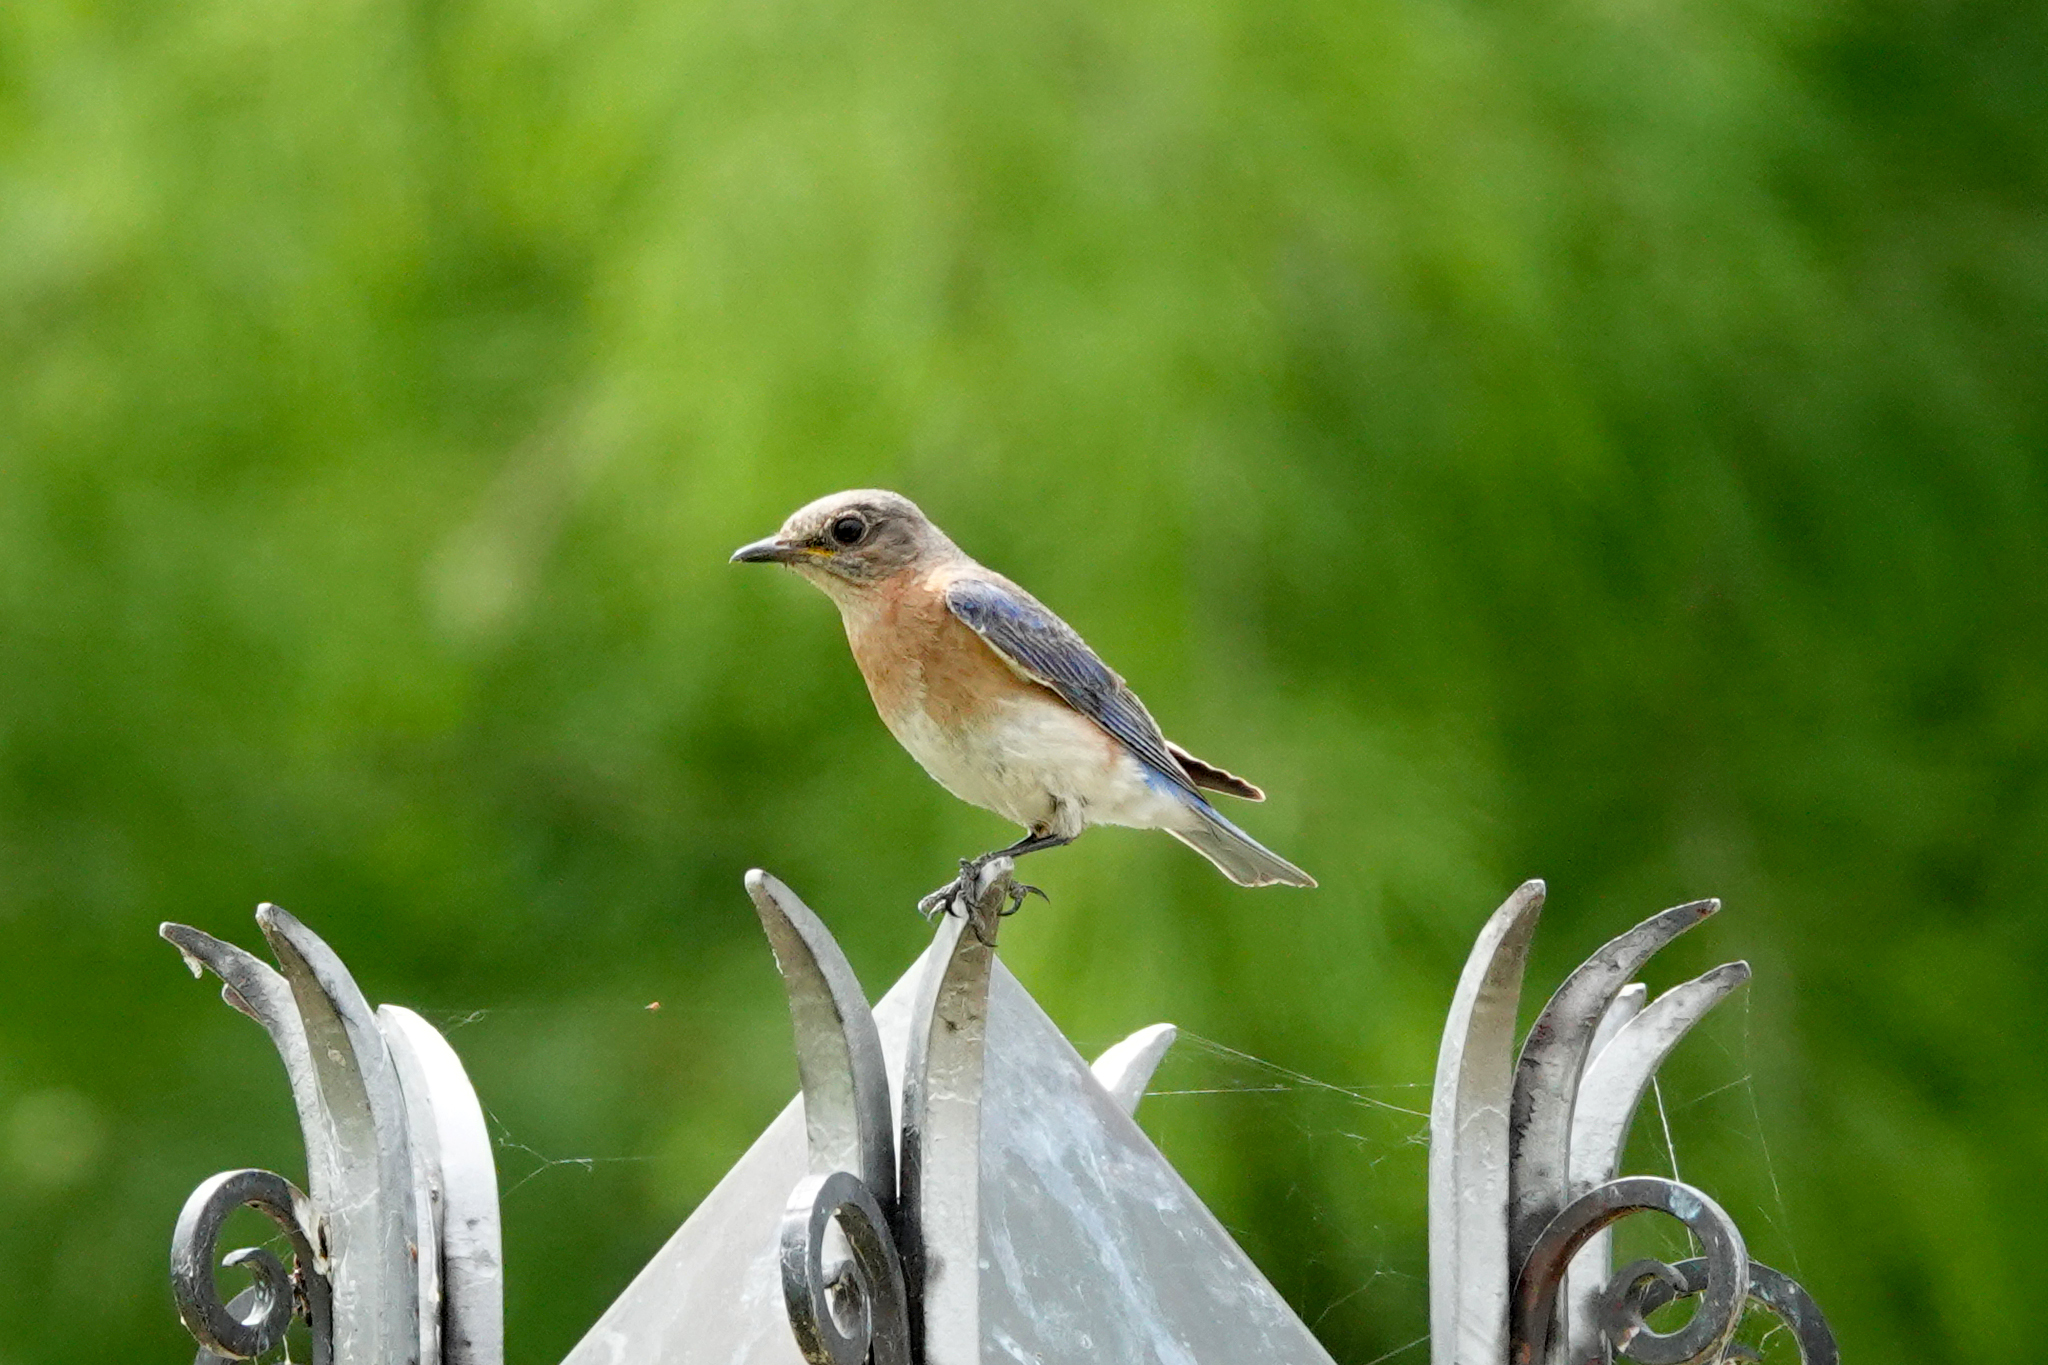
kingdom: Animalia
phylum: Chordata
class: Aves
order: Passeriformes
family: Turdidae
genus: Sialia
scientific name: Sialia sialis
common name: Eastern bluebird
